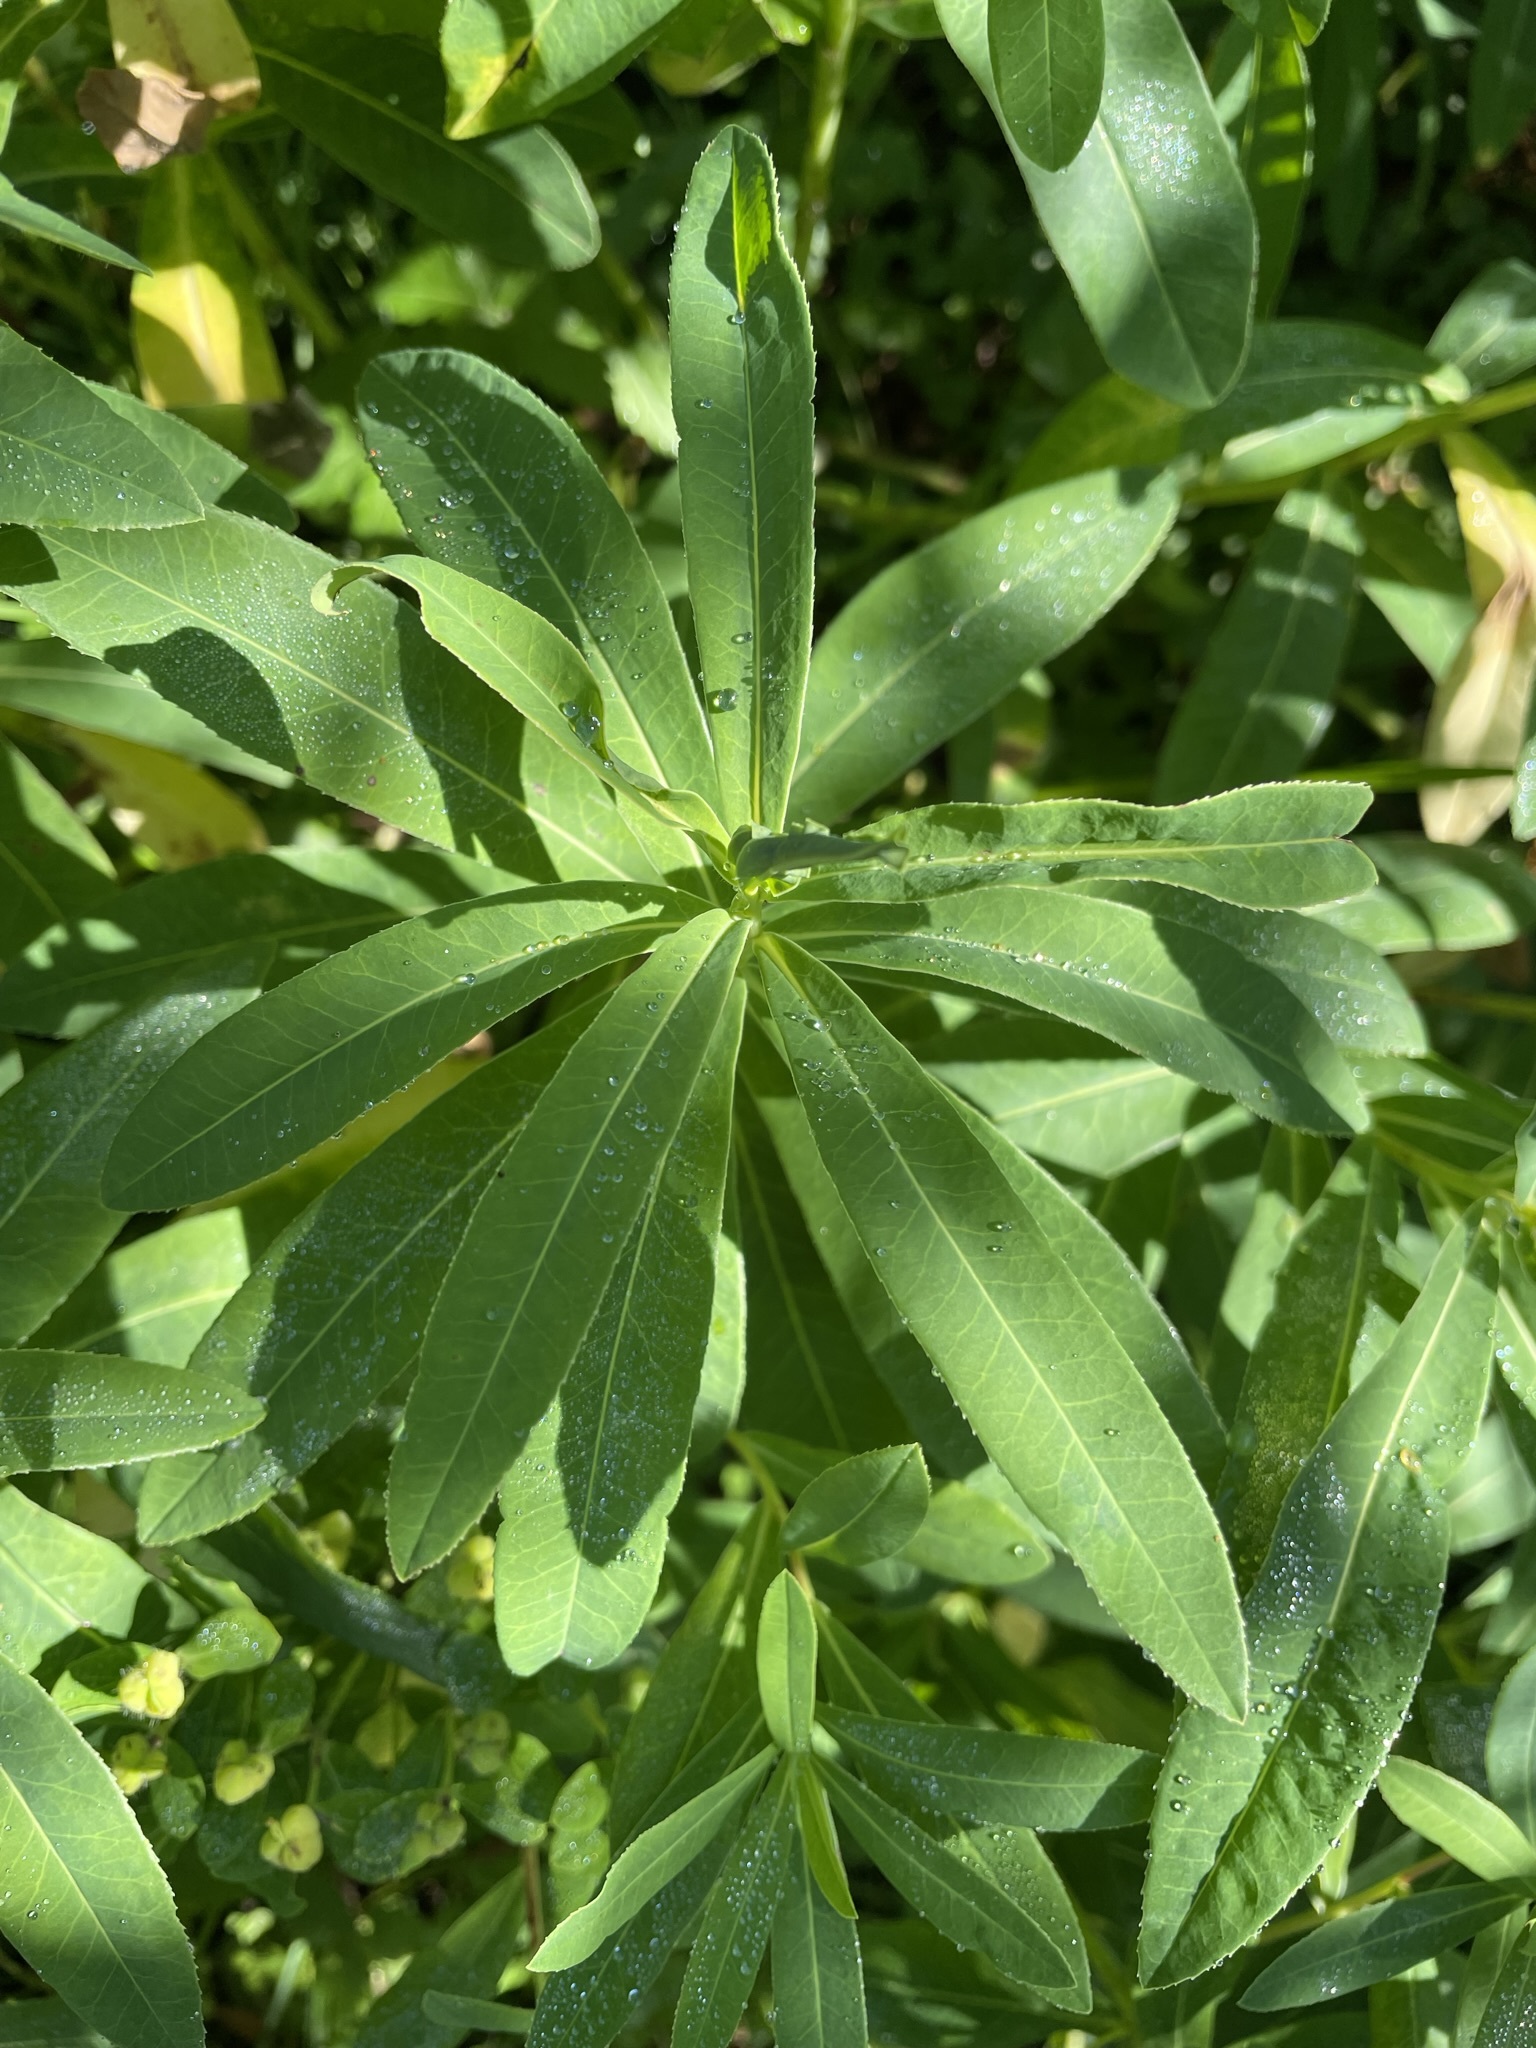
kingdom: Plantae
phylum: Tracheophyta
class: Magnoliopsida
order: Malpighiales
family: Euphorbiaceae
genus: Euphorbia
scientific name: Euphorbia austriaca
